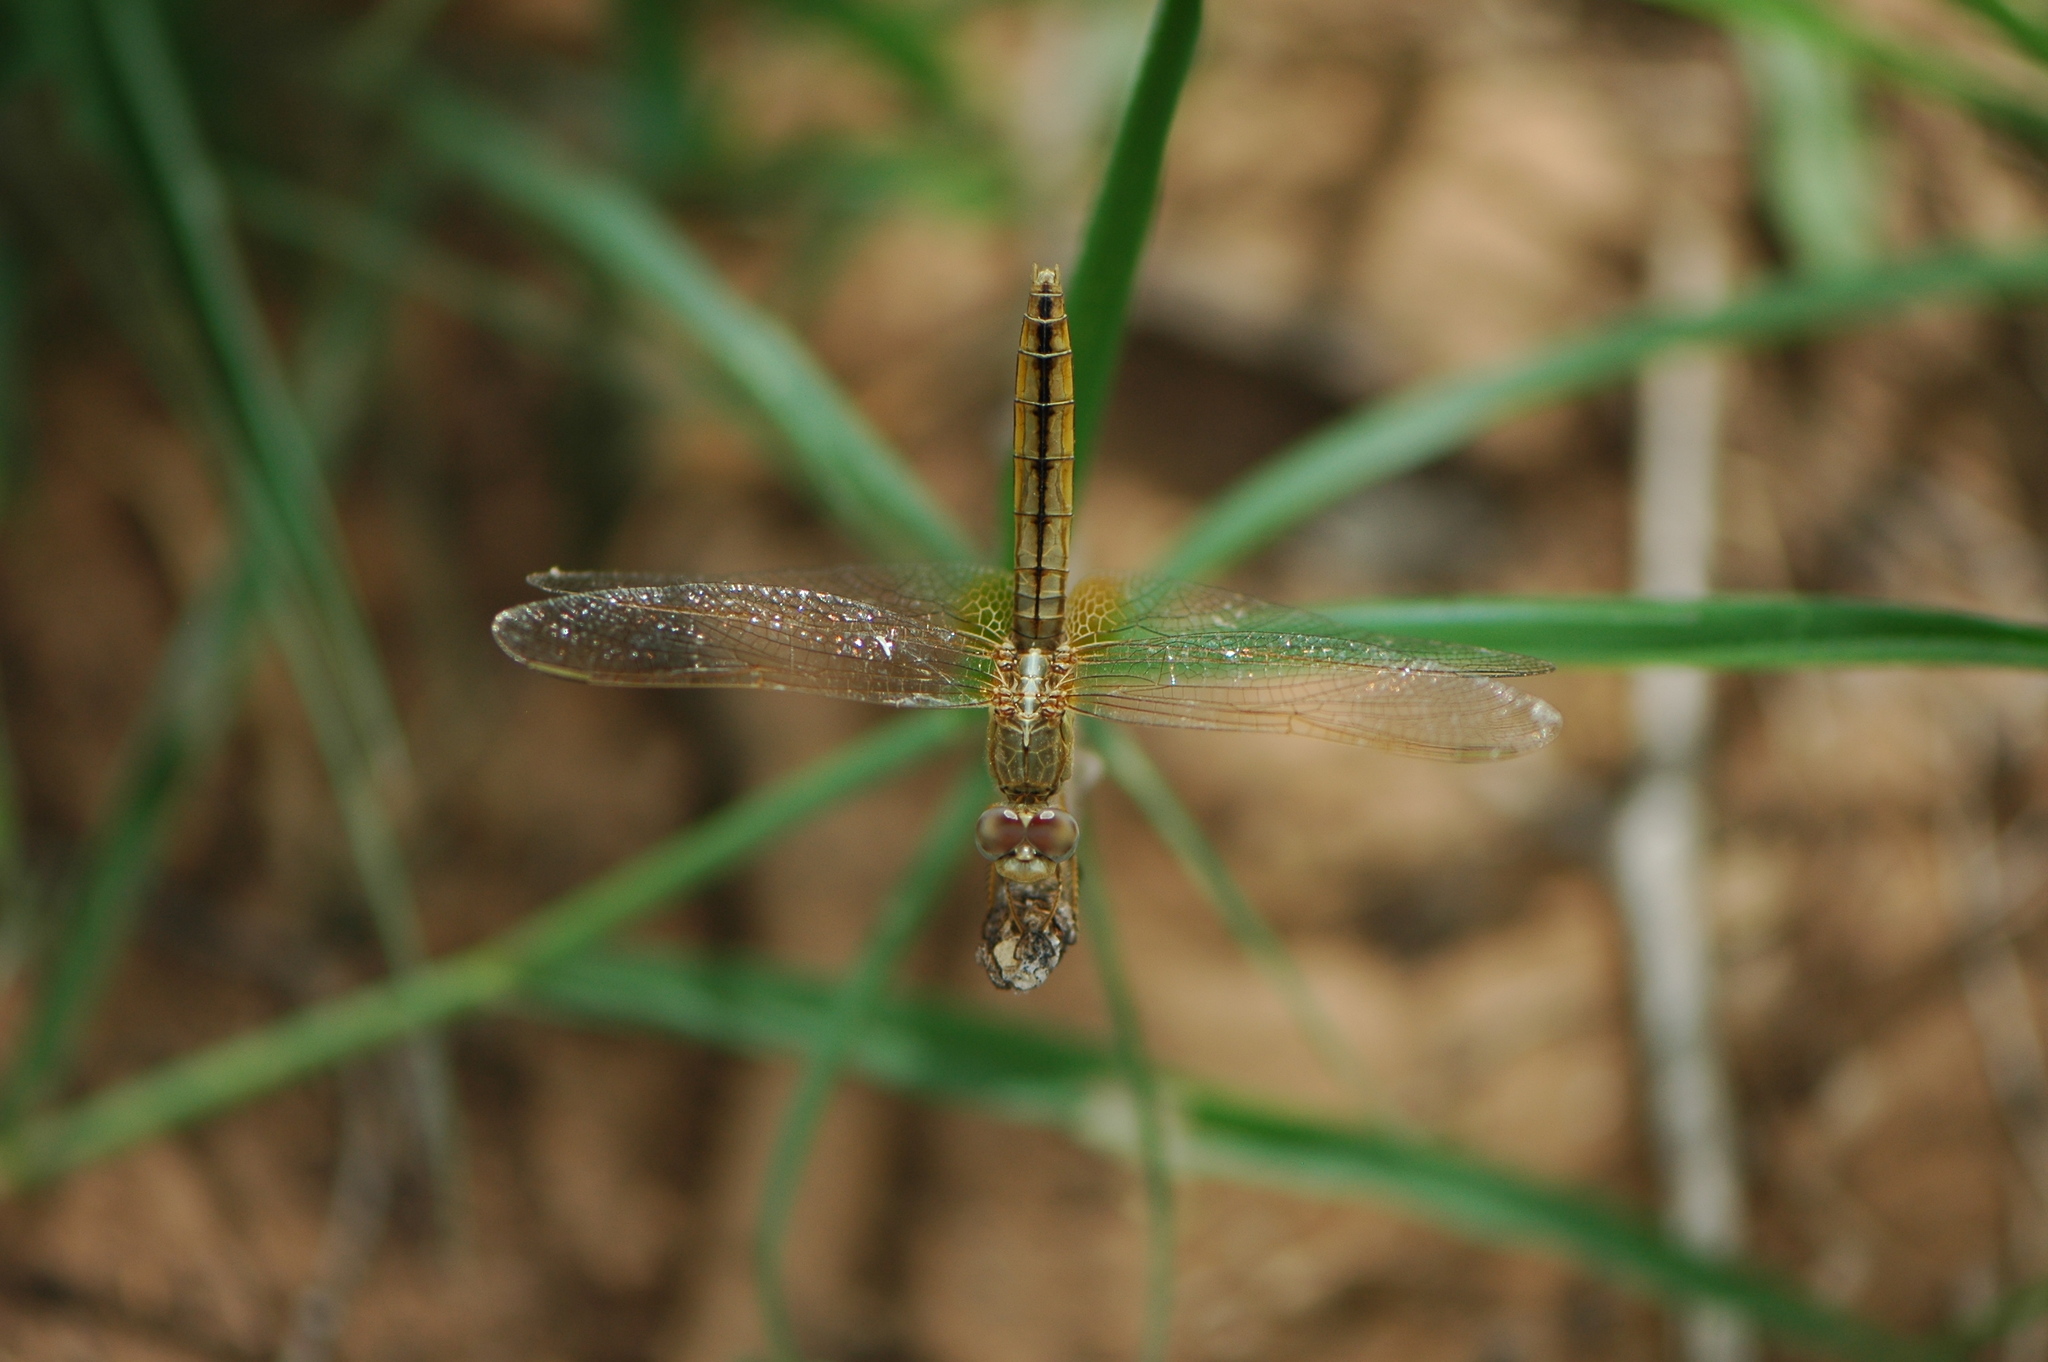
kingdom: Animalia
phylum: Arthropoda
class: Insecta
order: Odonata
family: Libellulidae
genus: Crocothemis
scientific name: Crocothemis erythraea
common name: Scarlet dragonfly
